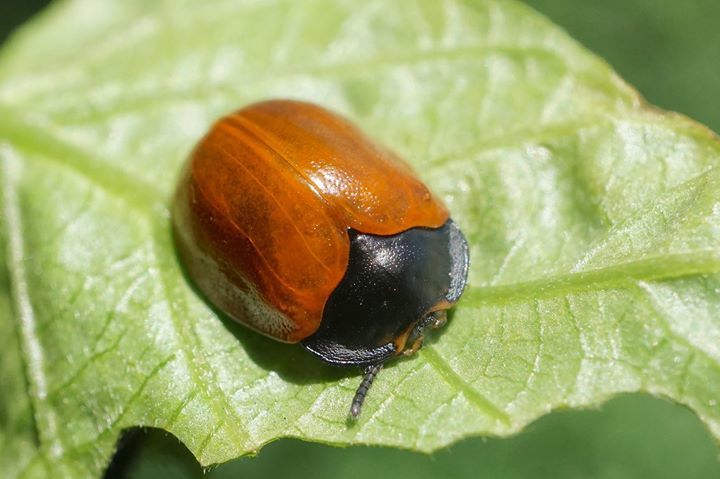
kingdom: Animalia
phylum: Arthropoda
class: Insecta
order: Coleoptera
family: Chrysomelidae
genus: Chelymorpha
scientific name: Chelymorpha cribraria
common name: Tortoise beetle
